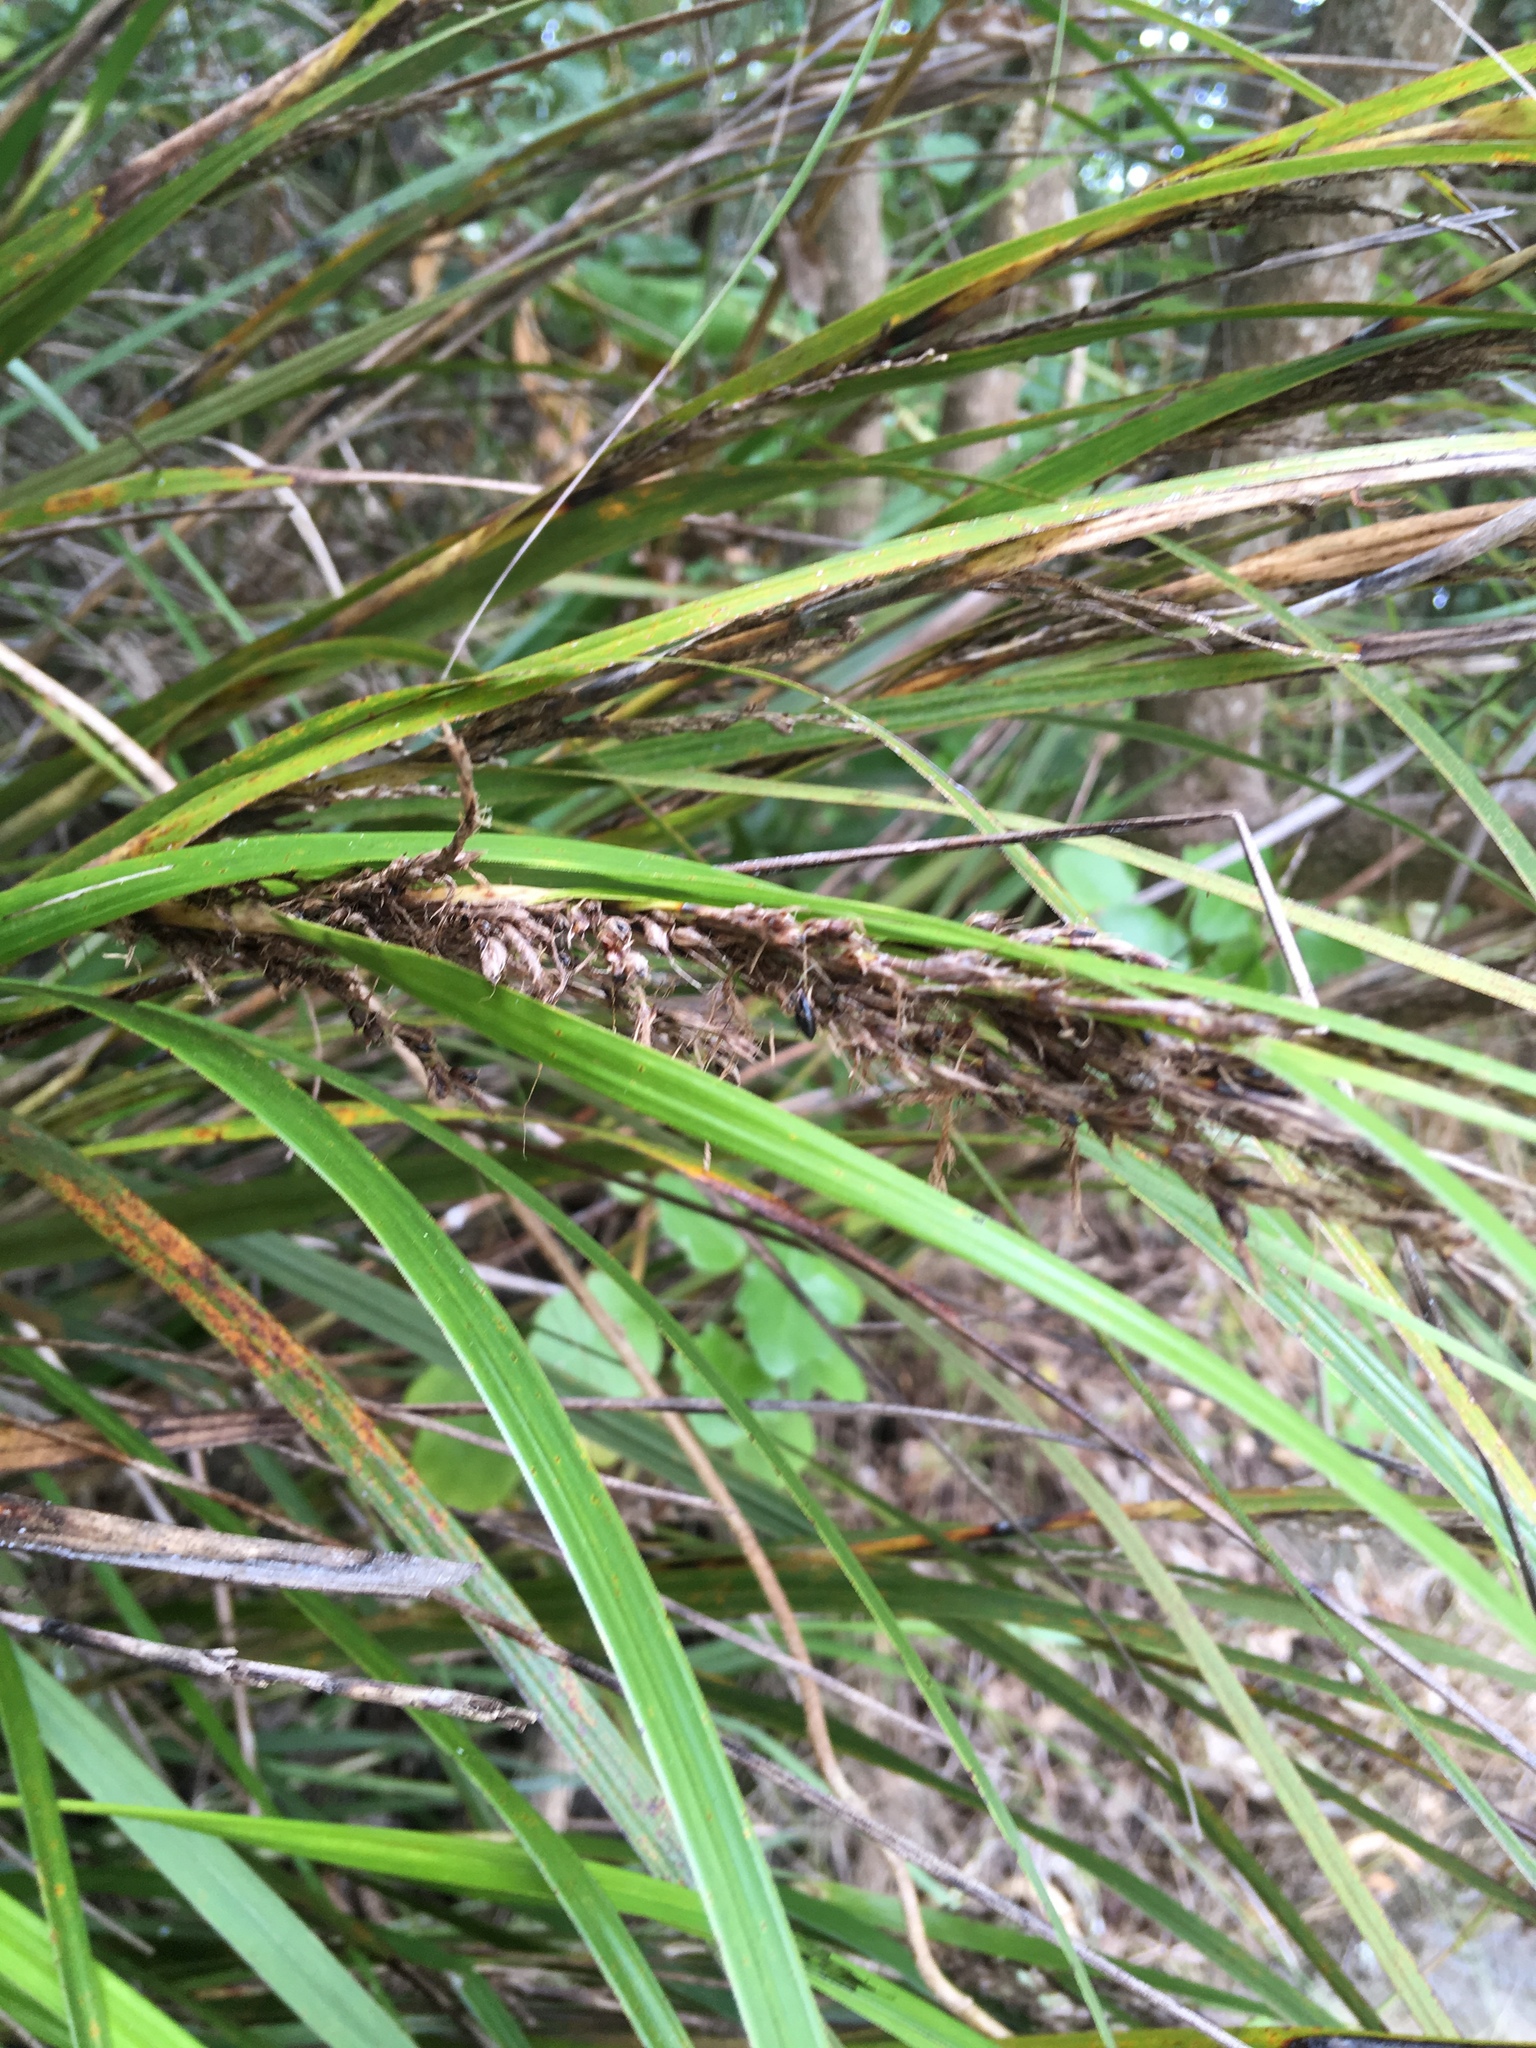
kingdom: Plantae
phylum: Tracheophyta
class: Liliopsida
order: Poales
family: Cyperaceae
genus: Gahnia
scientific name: Gahnia lacera
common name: Sawsedge
